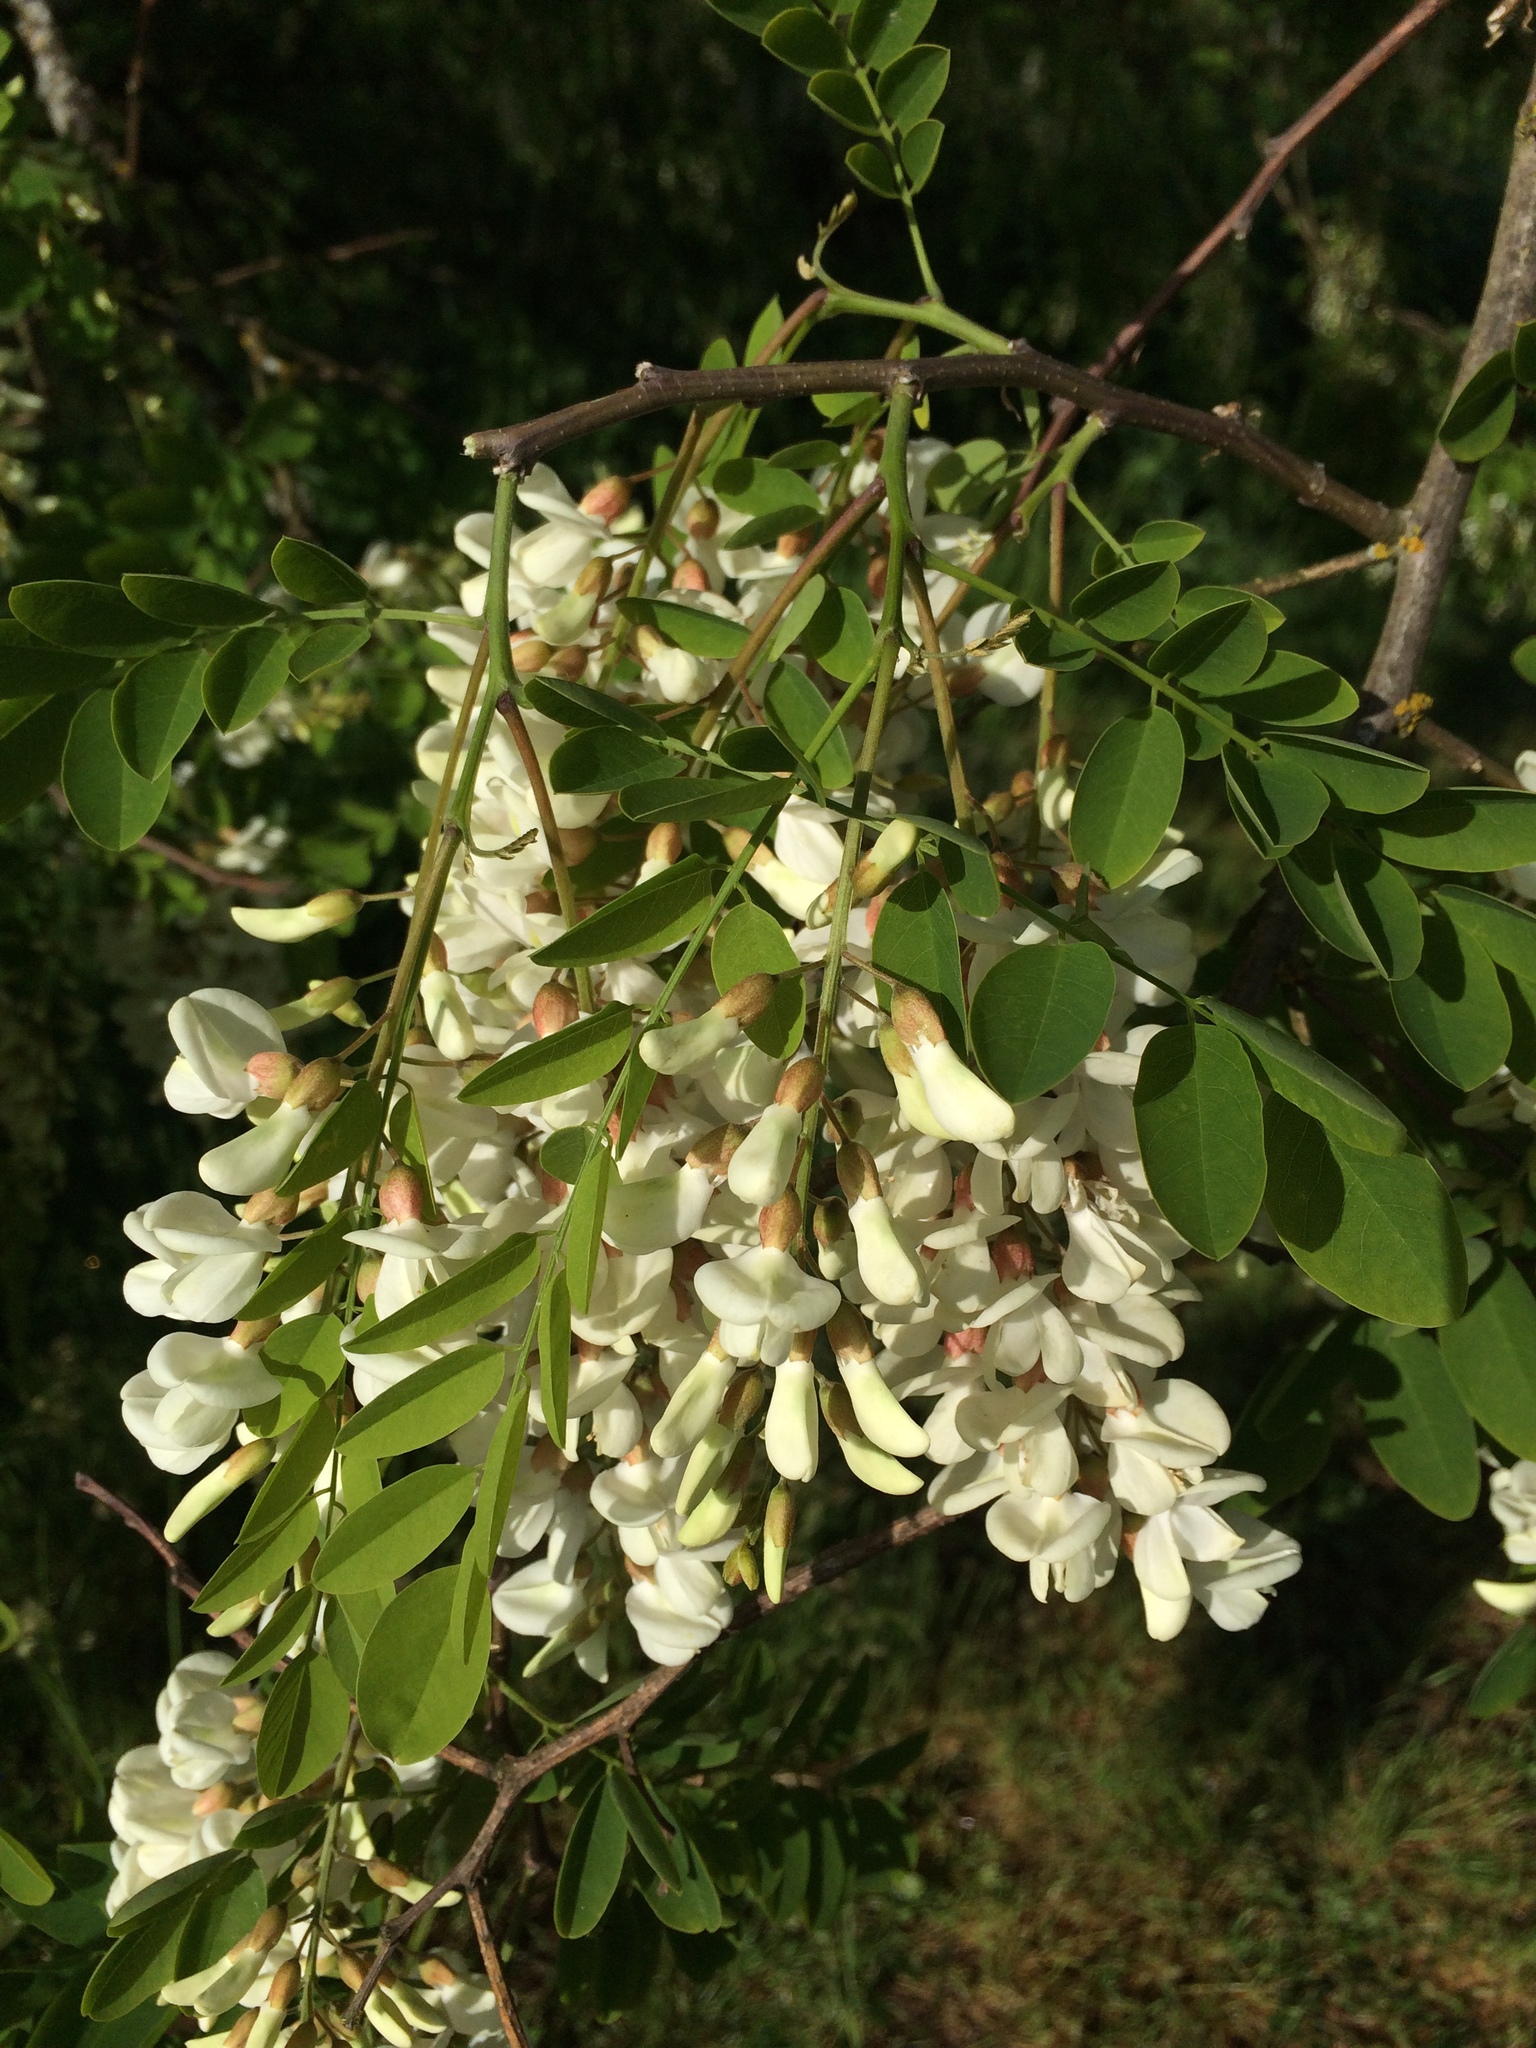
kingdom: Plantae
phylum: Tracheophyta
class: Magnoliopsida
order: Fabales
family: Fabaceae
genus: Robinia
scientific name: Robinia pseudoacacia
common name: Black locust
